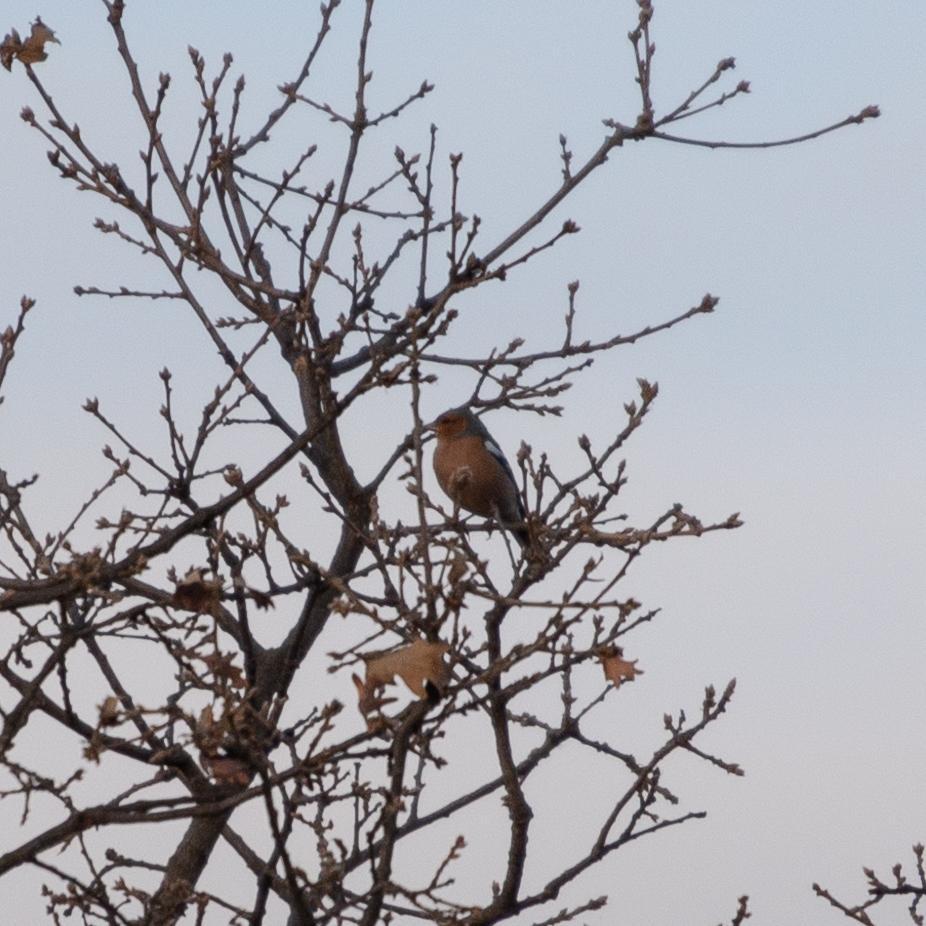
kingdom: Animalia
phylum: Chordata
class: Aves
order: Passeriformes
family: Fringillidae
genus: Fringilla
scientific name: Fringilla coelebs
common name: Common chaffinch
